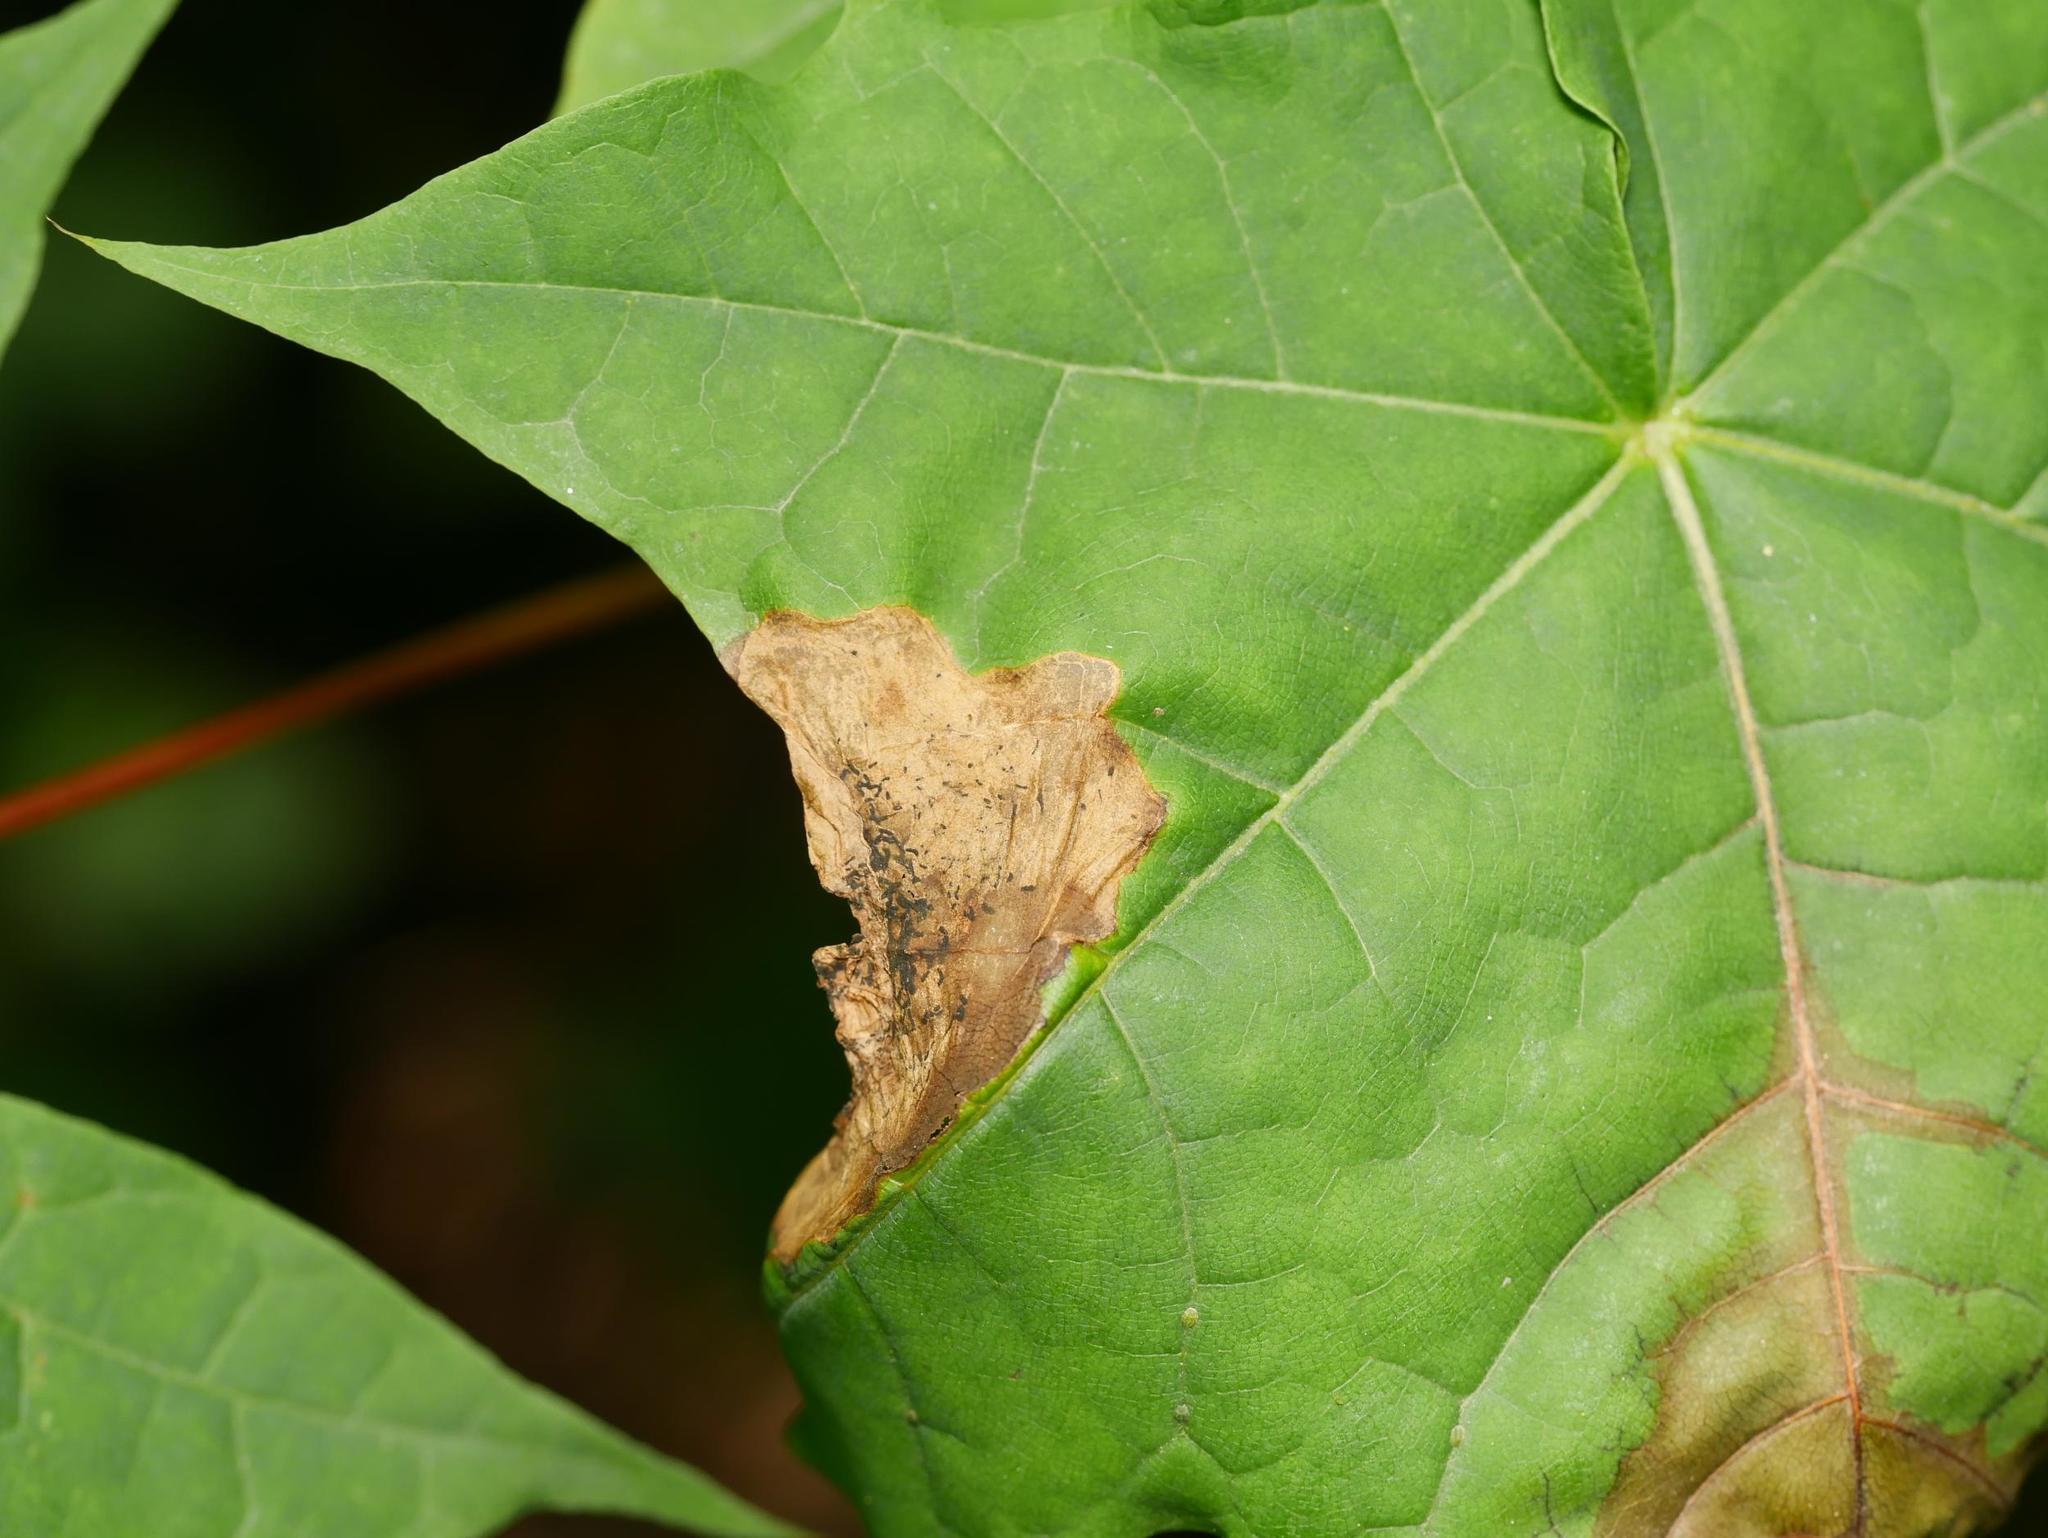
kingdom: Animalia
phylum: Arthropoda
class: Insecta
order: Hymenoptera
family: Tenthredinidae
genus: Hinatara
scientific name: Hinatara recta
